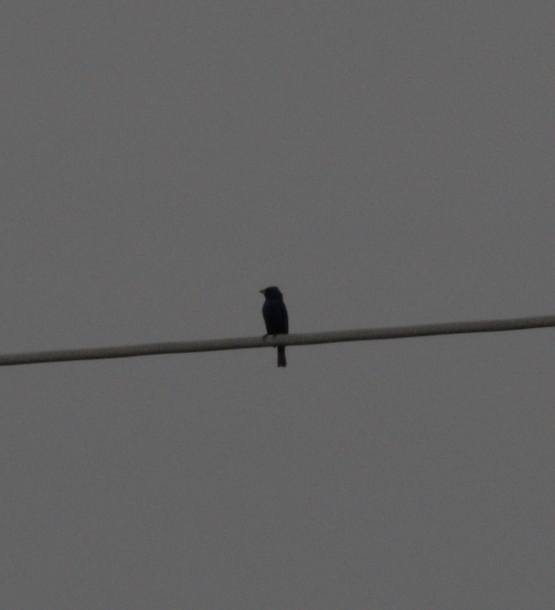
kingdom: Animalia
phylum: Chordata
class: Aves
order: Passeriformes
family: Cardinalidae
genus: Passerina
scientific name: Passerina cyanea
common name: Indigo bunting
